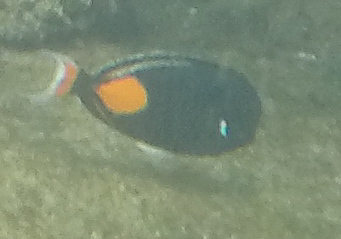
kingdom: Animalia
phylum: Chordata
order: Perciformes
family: Acanthuridae
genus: Acanthurus
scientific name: Acanthurus achilles
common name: Achilles tang
